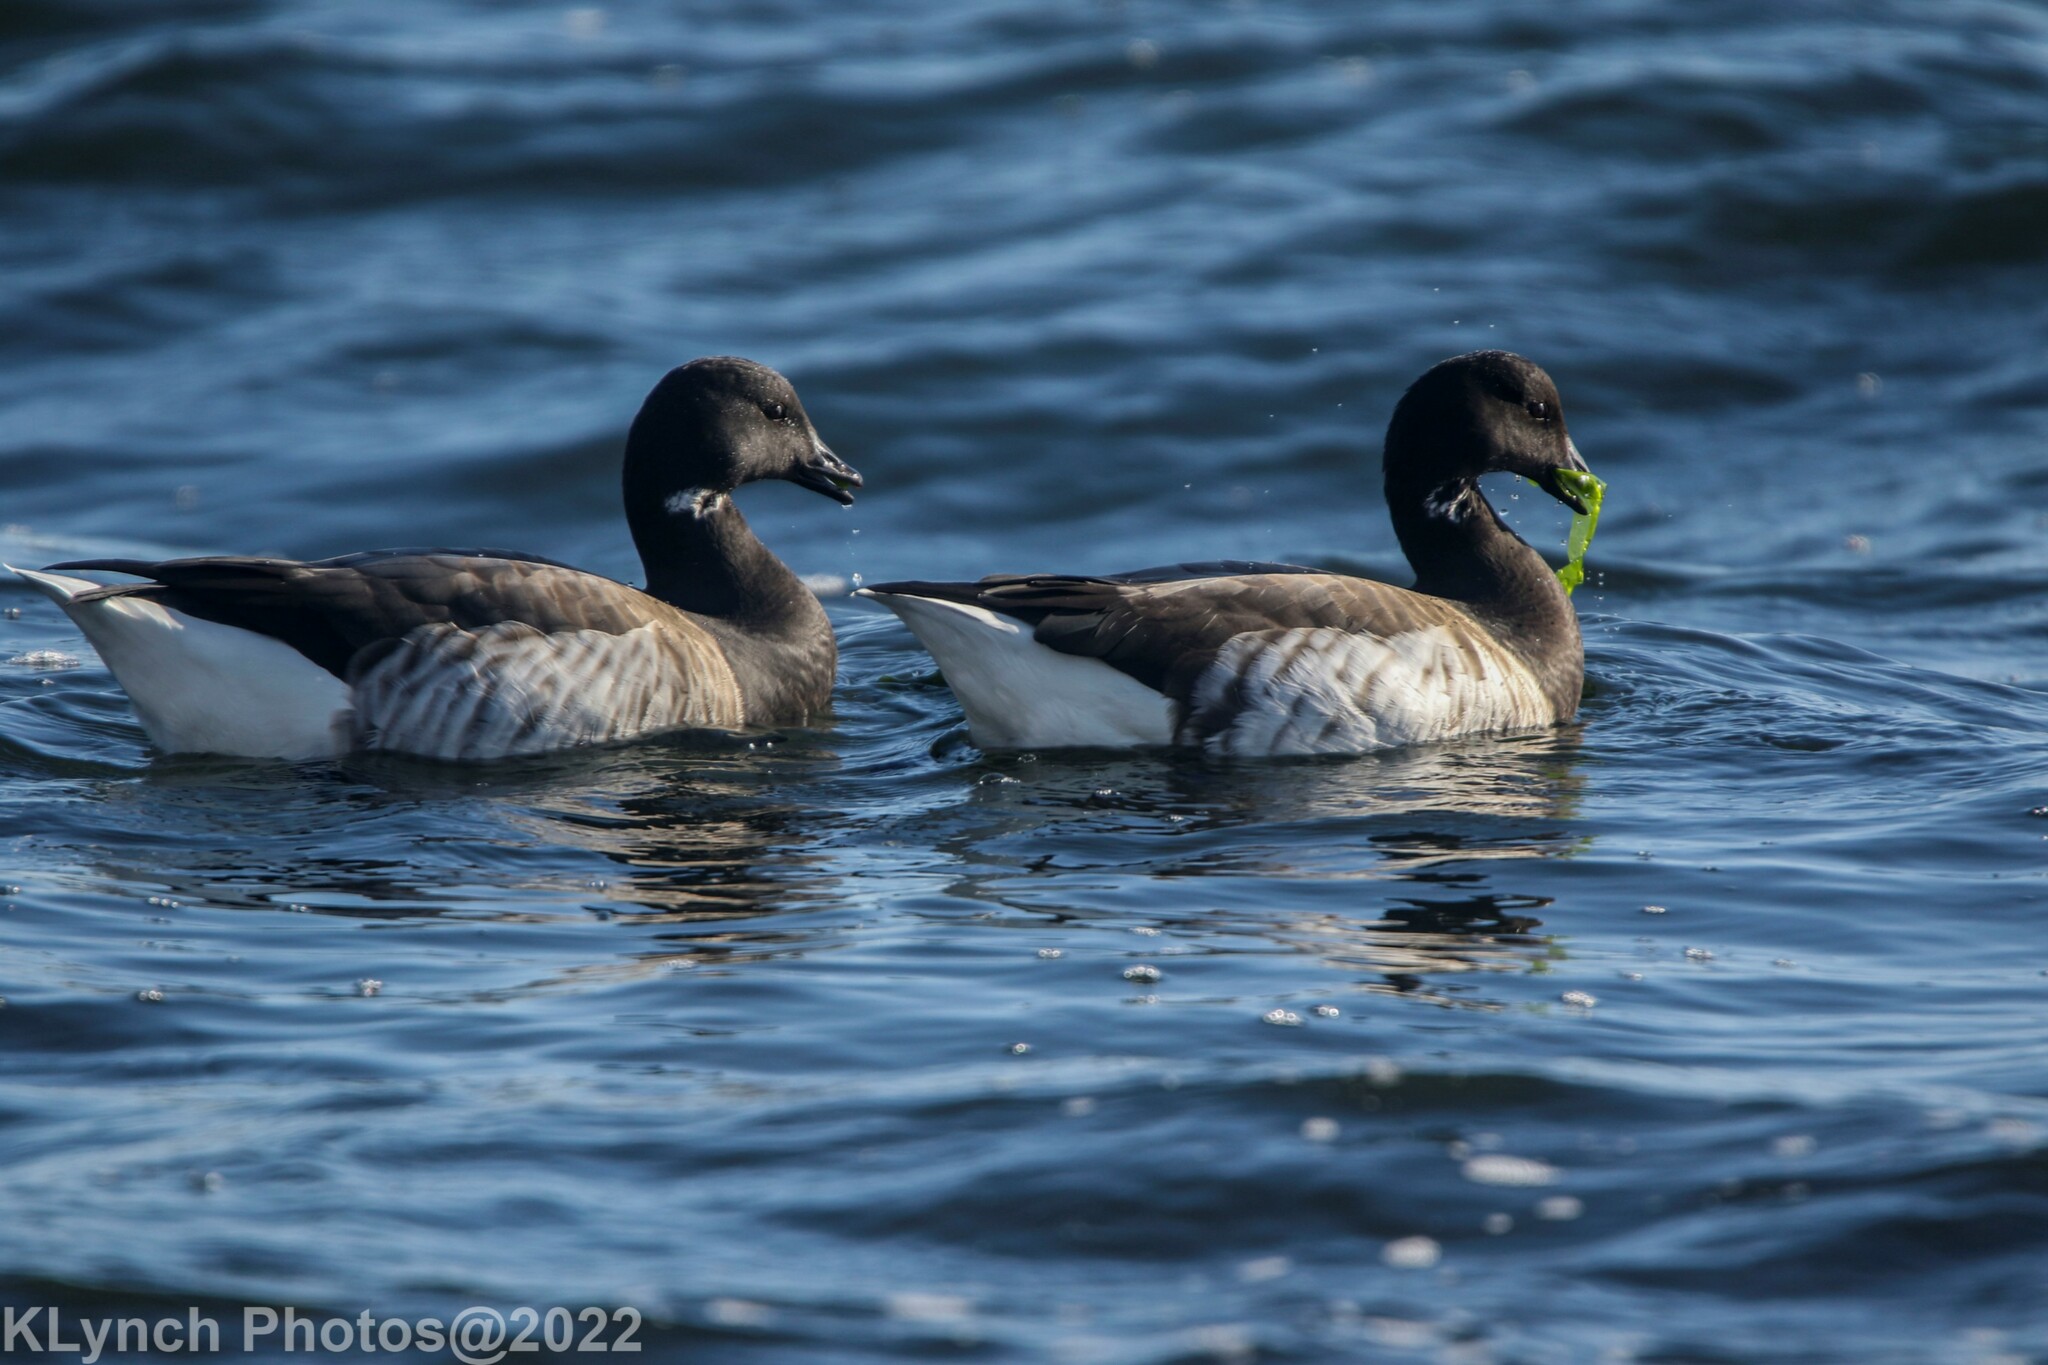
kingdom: Animalia
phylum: Chordata
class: Aves
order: Anseriformes
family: Anatidae
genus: Branta
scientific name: Branta bernicla
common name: Brant goose
